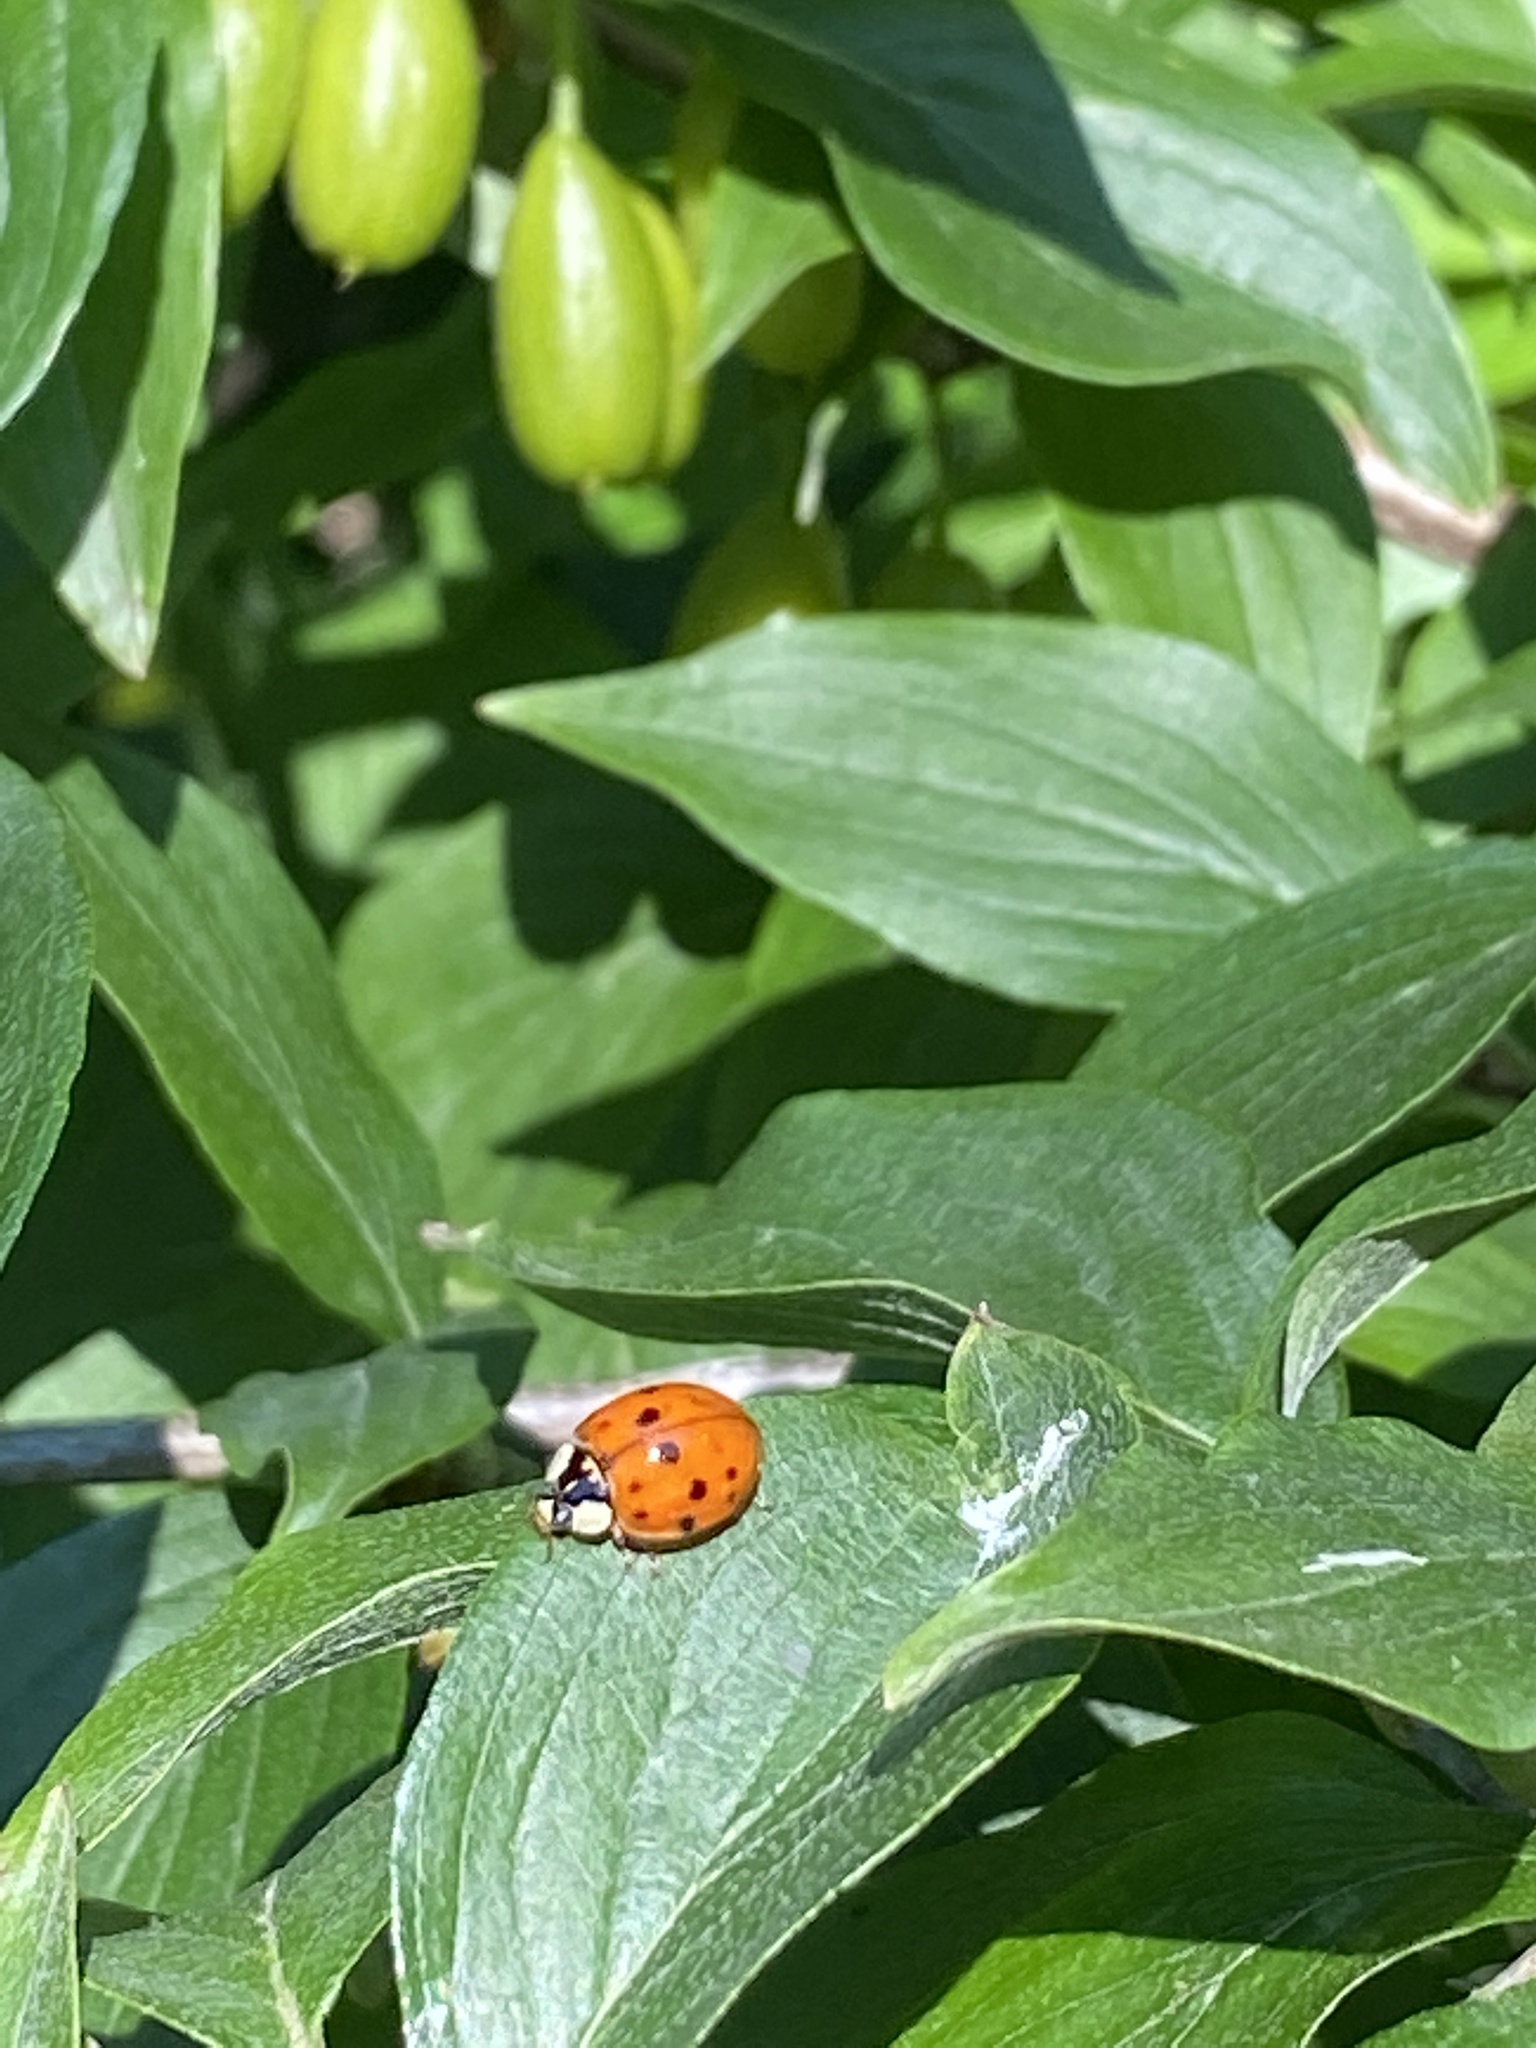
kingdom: Animalia
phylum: Arthropoda
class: Insecta
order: Coleoptera
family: Coccinellidae
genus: Harmonia
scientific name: Harmonia axyridis
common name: Harlequin ladybird
